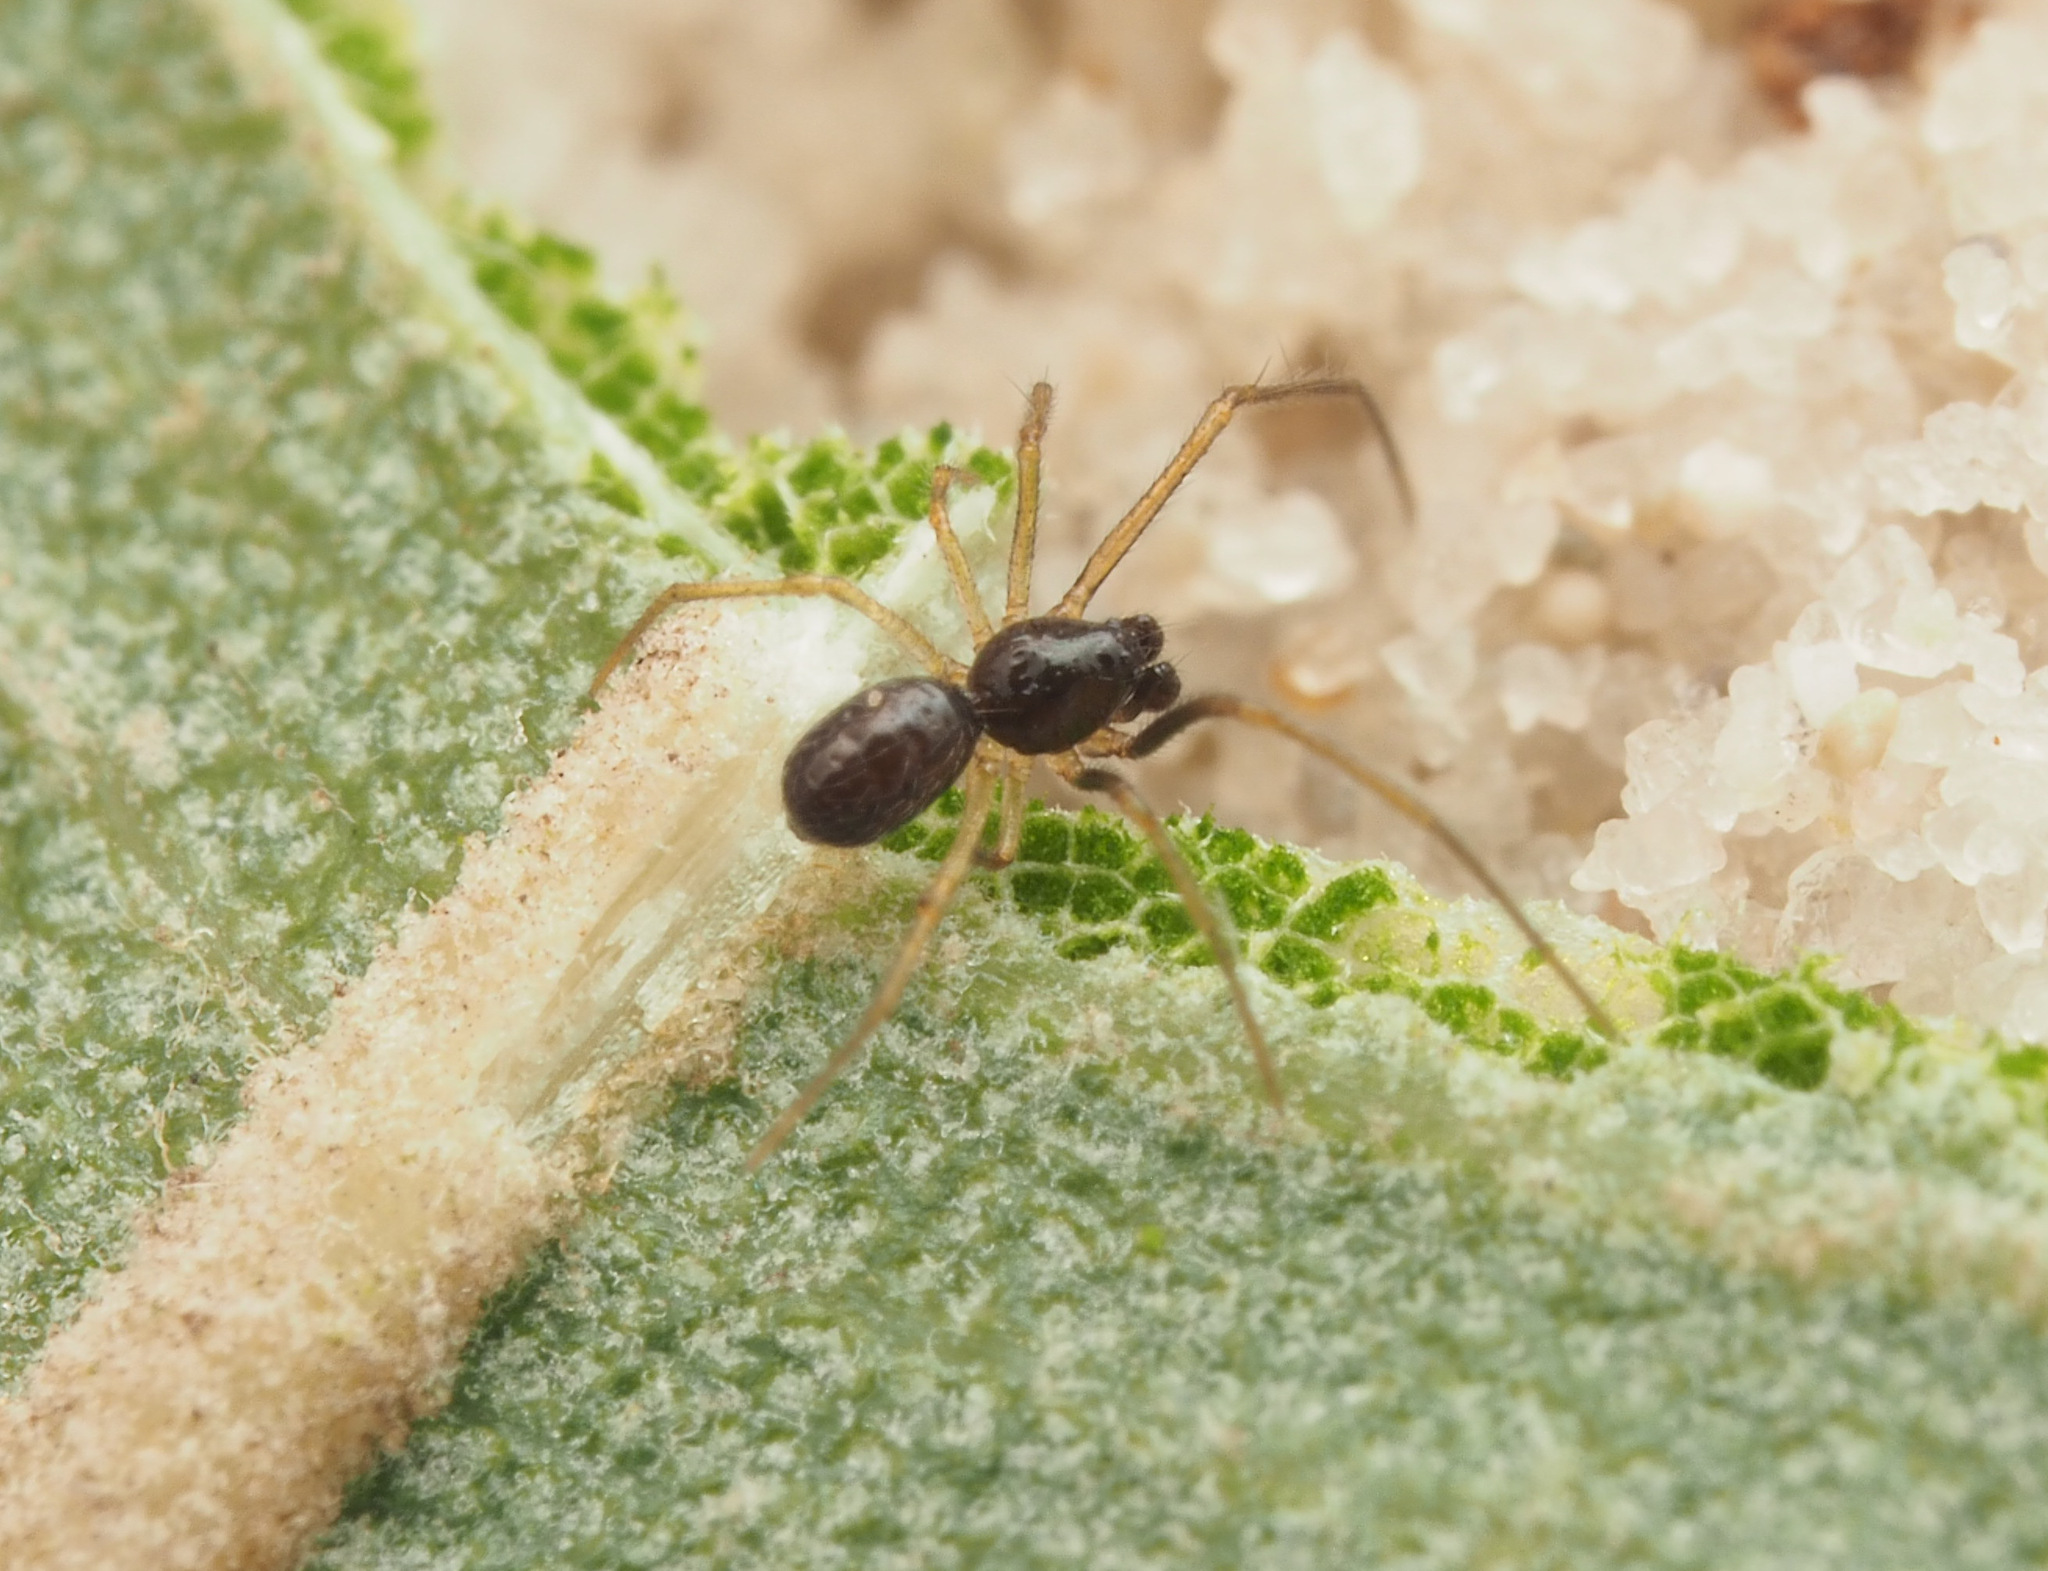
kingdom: Animalia
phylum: Arthropoda
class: Arachnida
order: Araneae
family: Theridiidae
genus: Coleosoma
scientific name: Coleosoma
